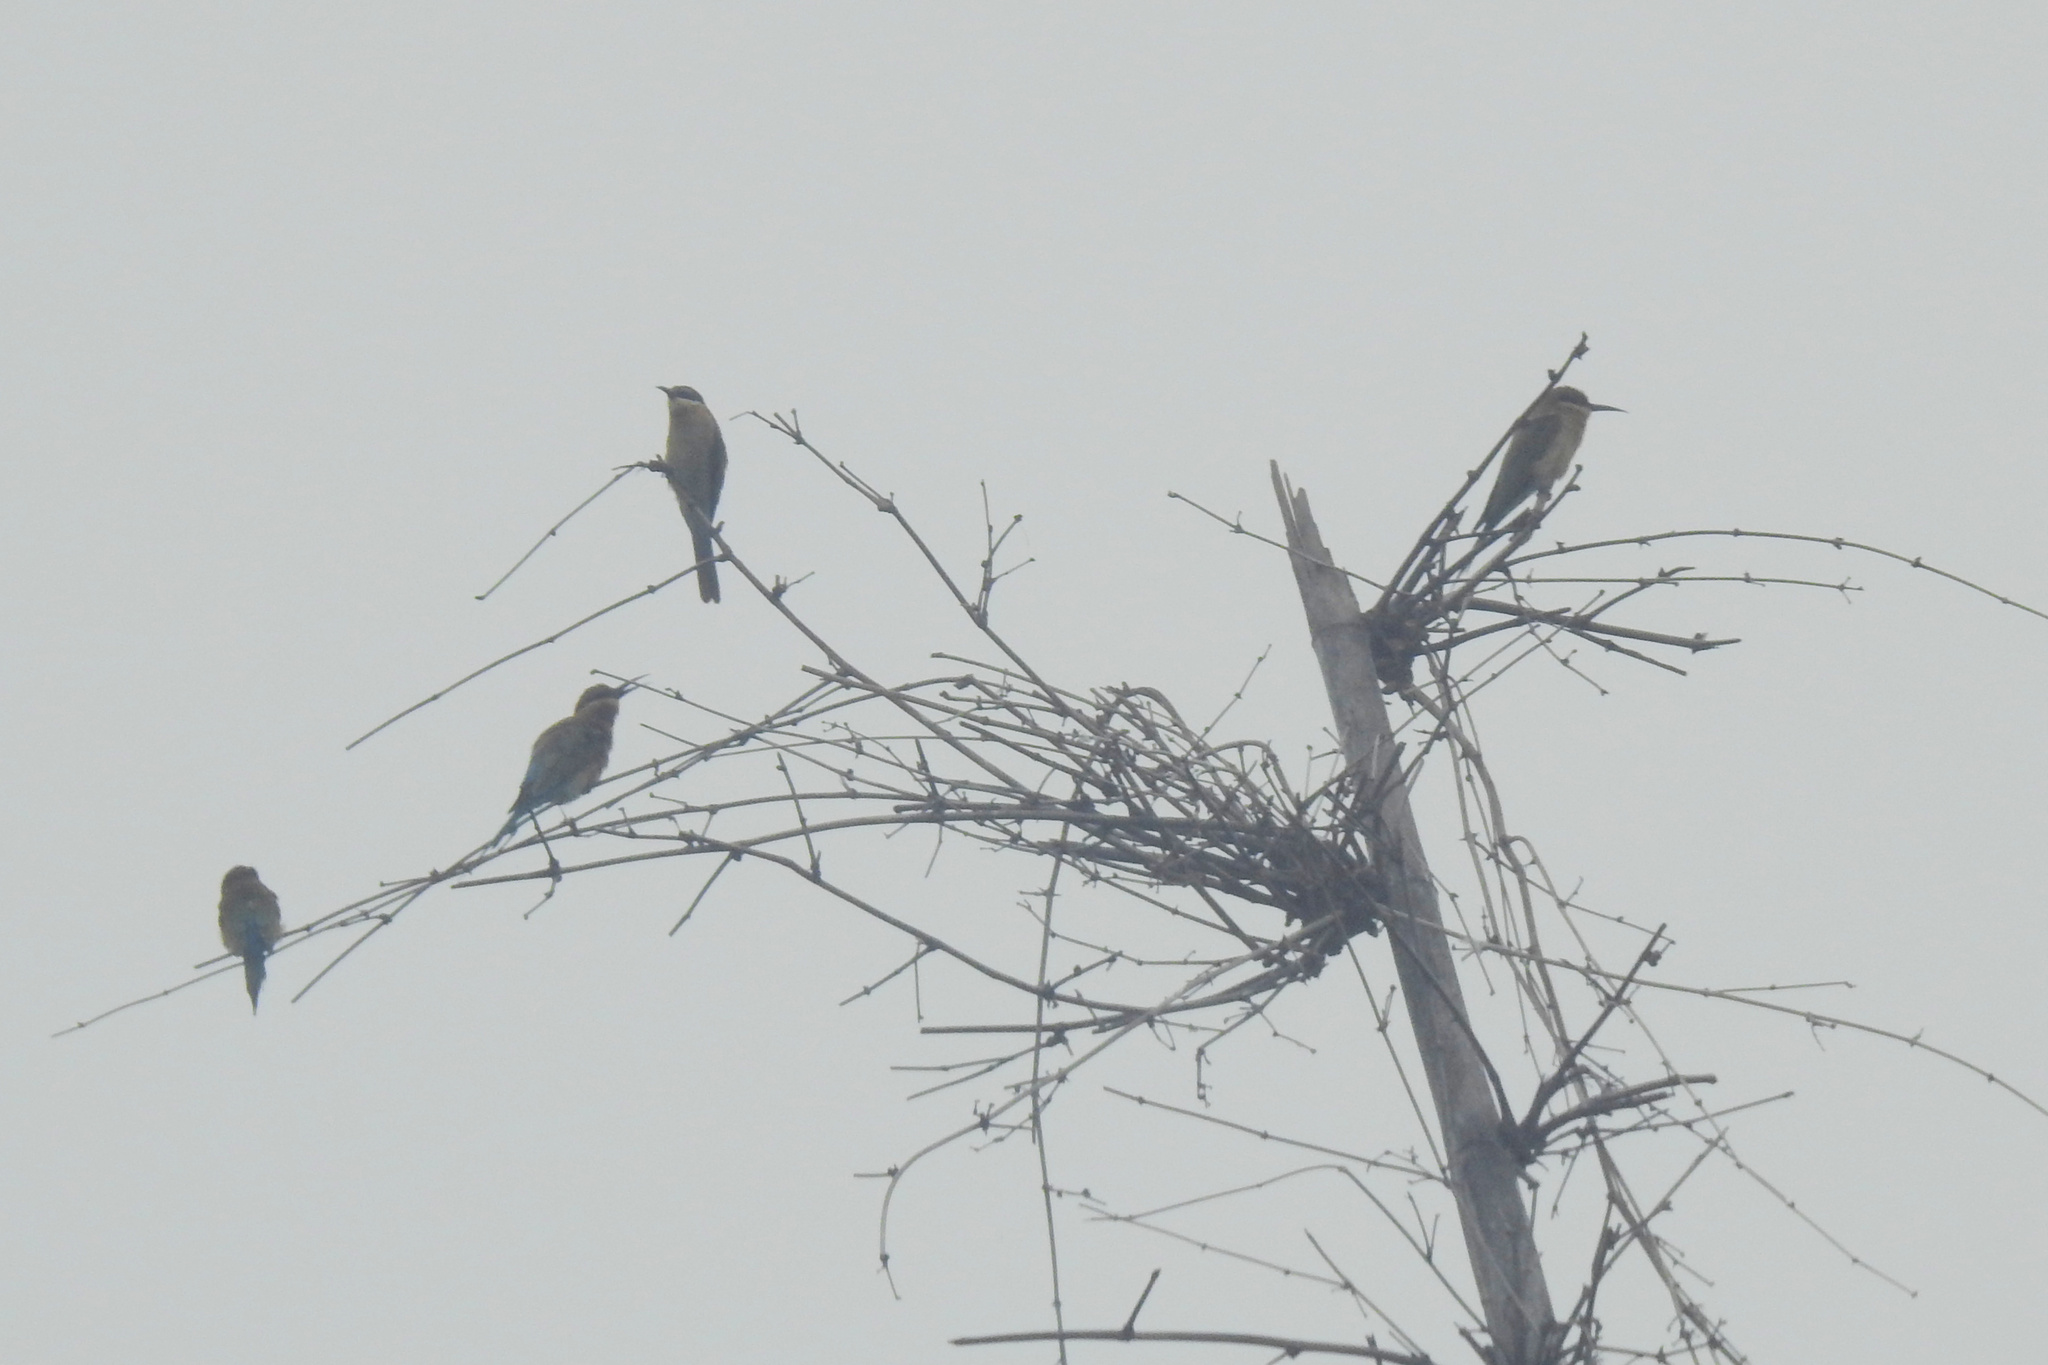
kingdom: Animalia
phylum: Chordata
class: Aves
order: Coraciiformes
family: Meropidae
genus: Merops
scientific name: Merops philippinus
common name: Blue-tailed bee-eater
